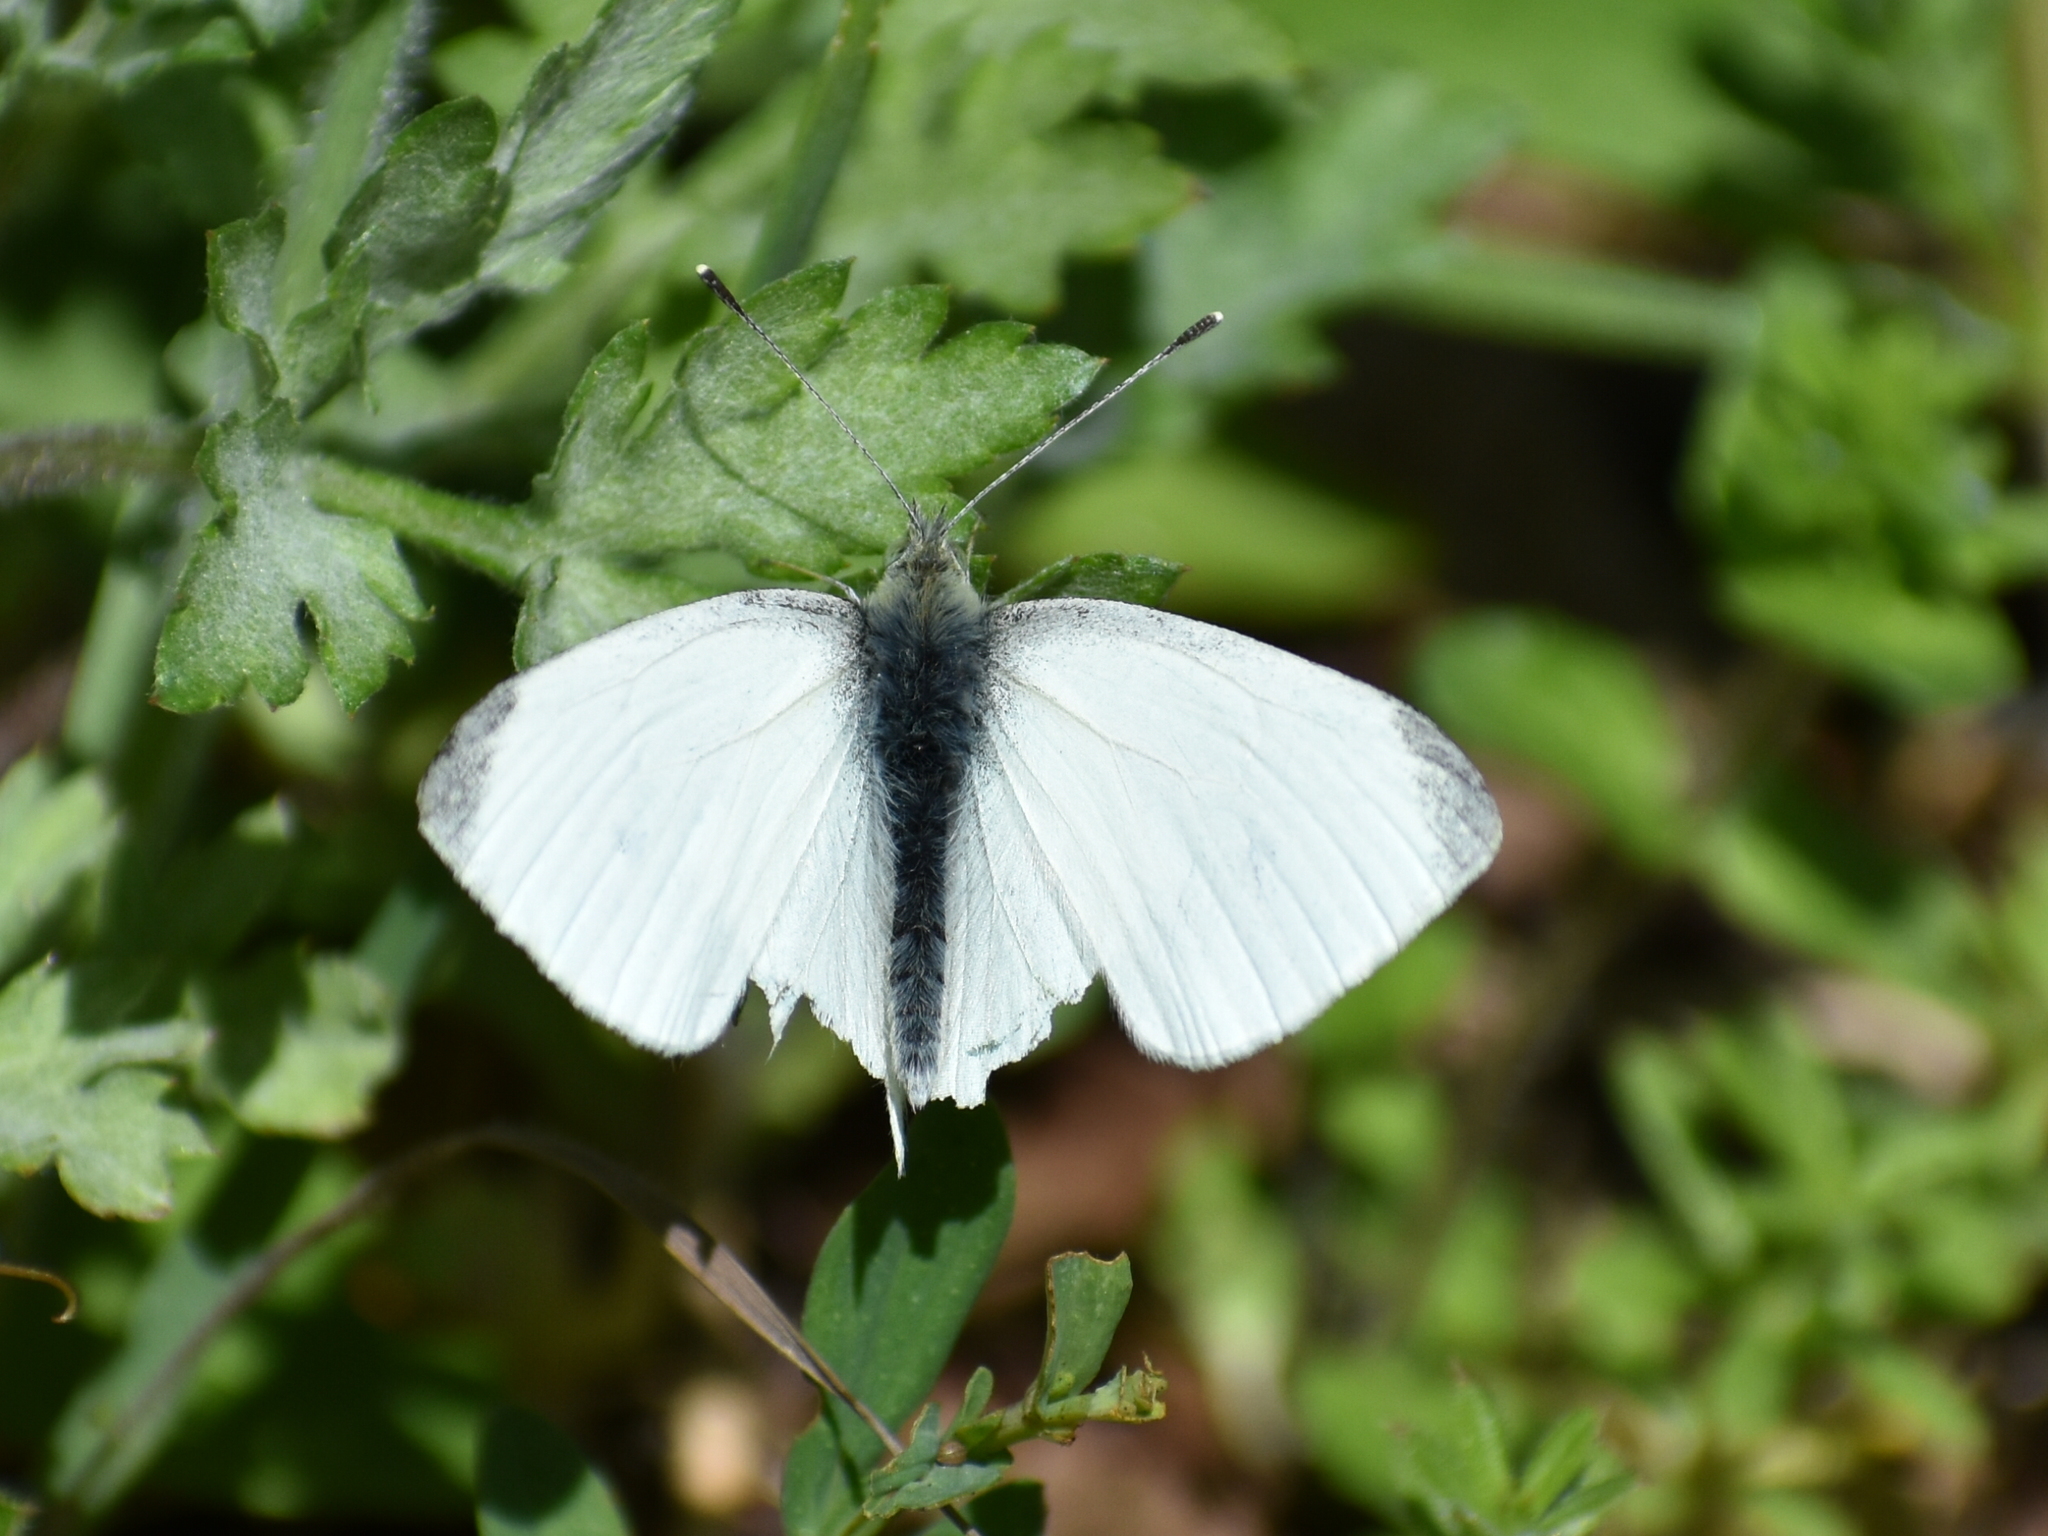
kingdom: Animalia
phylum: Arthropoda
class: Insecta
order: Lepidoptera
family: Pieridae
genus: Pieris
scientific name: Pieris rapae
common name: Small white
